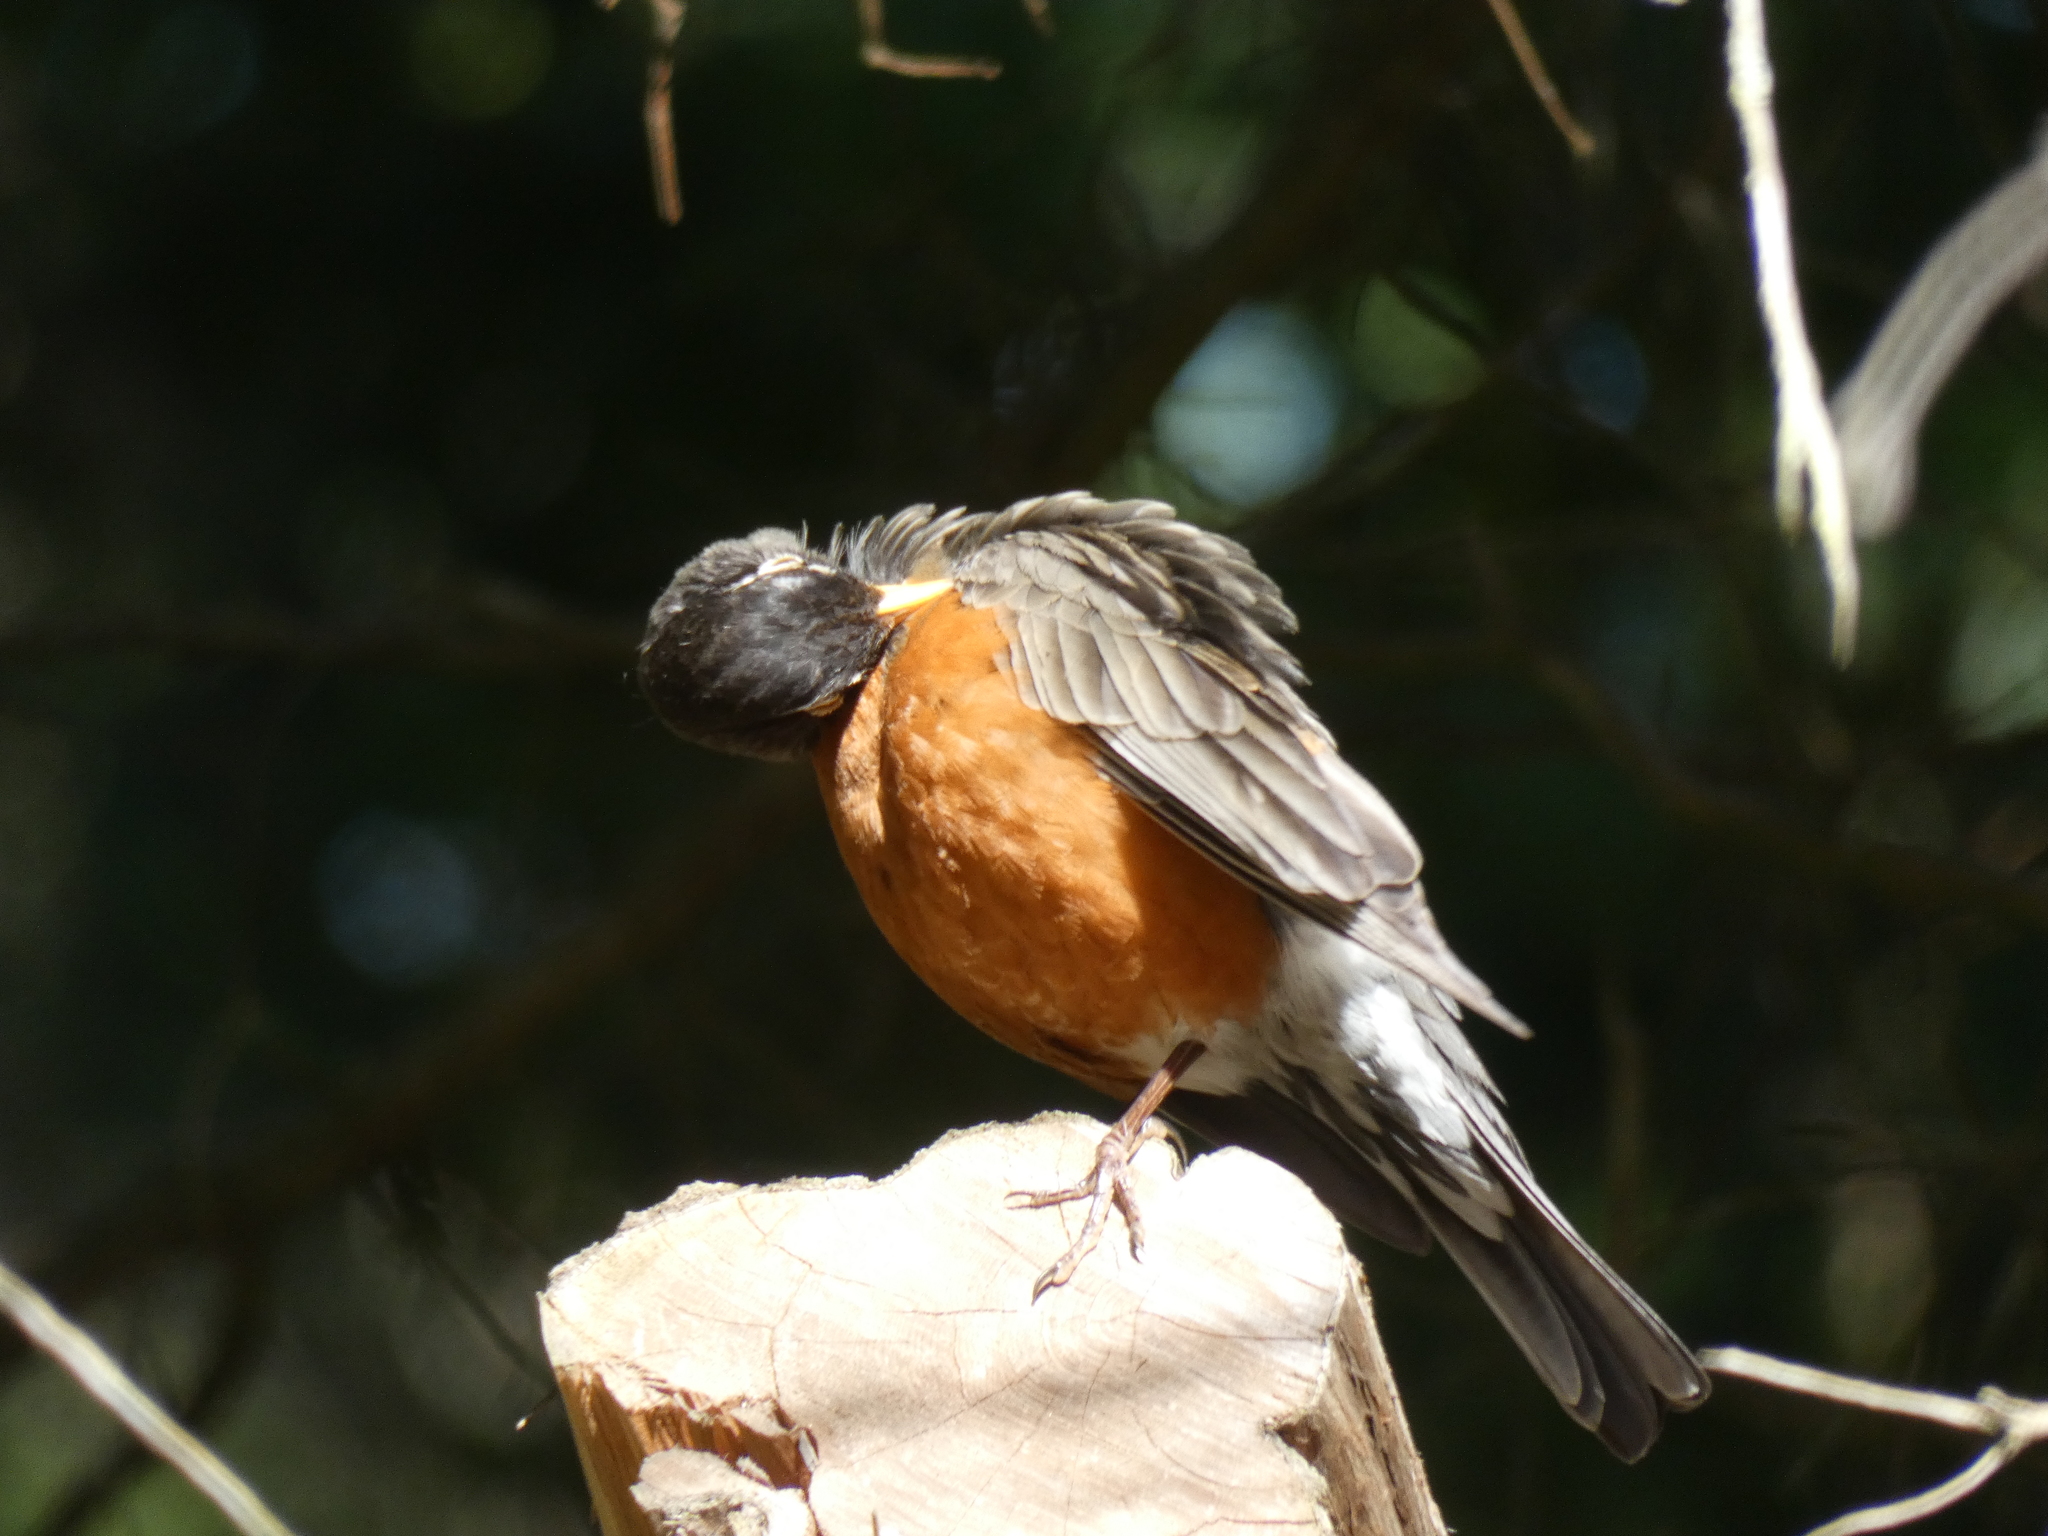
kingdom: Animalia
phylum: Chordata
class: Aves
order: Passeriformes
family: Turdidae
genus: Turdus
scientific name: Turdus migratorius
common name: American robin
